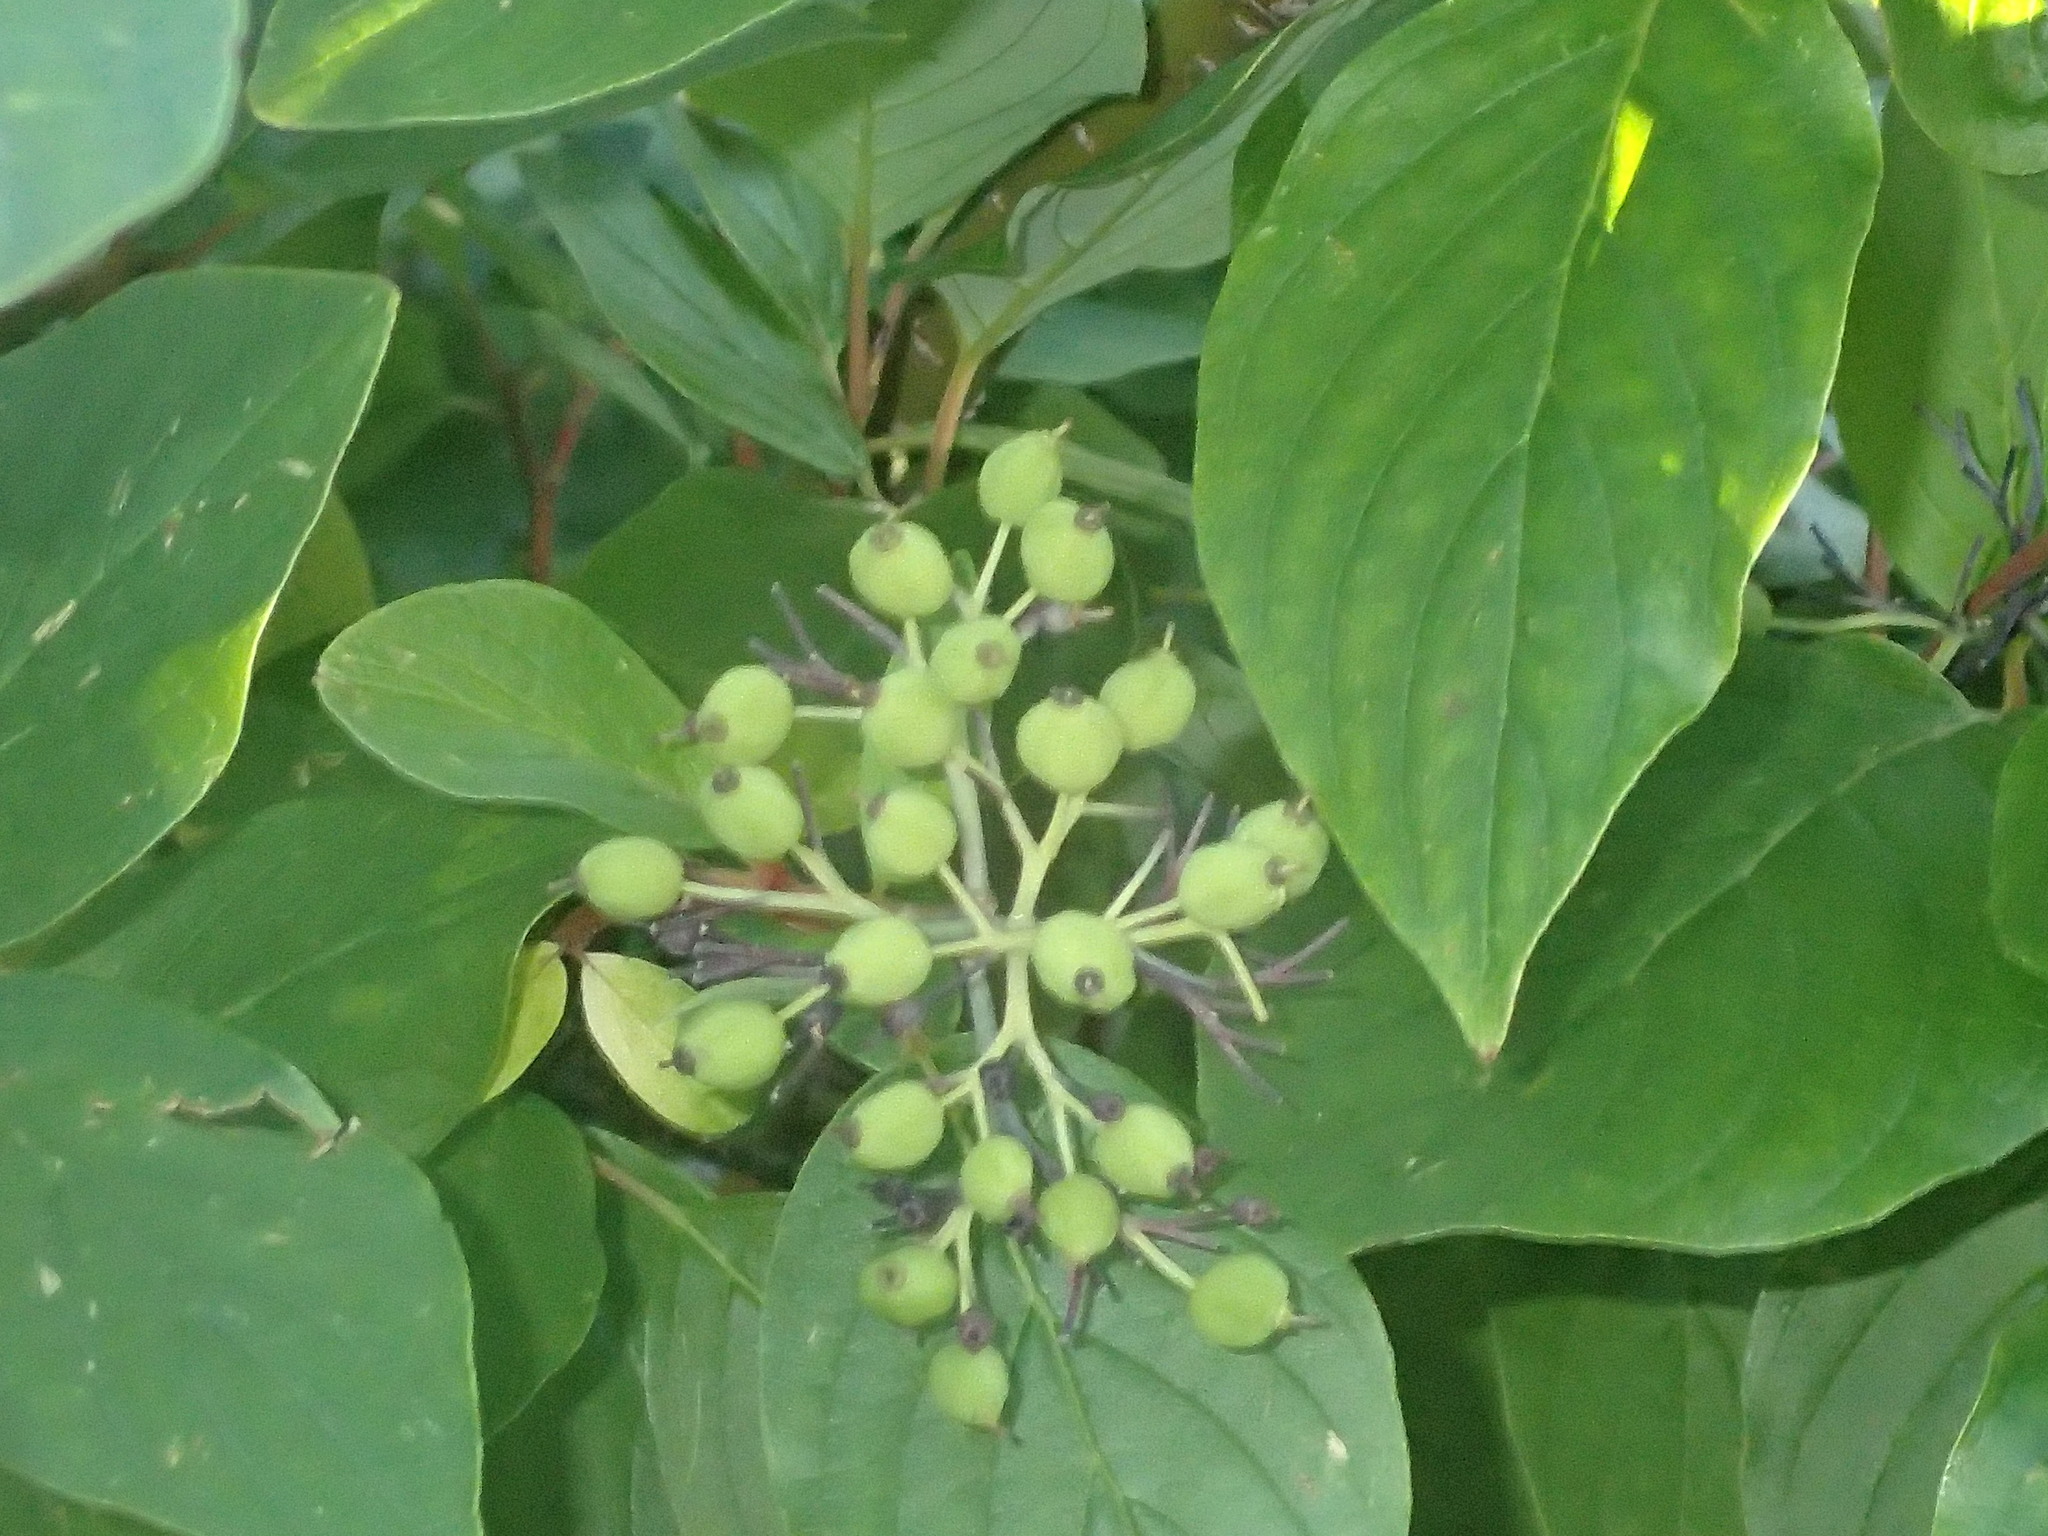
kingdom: Plantae
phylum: Tracheophyta
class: Magnoliopsida
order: Cornales
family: Cornaceae
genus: Cornus
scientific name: Cornus sericea
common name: Red-osier dogwood
